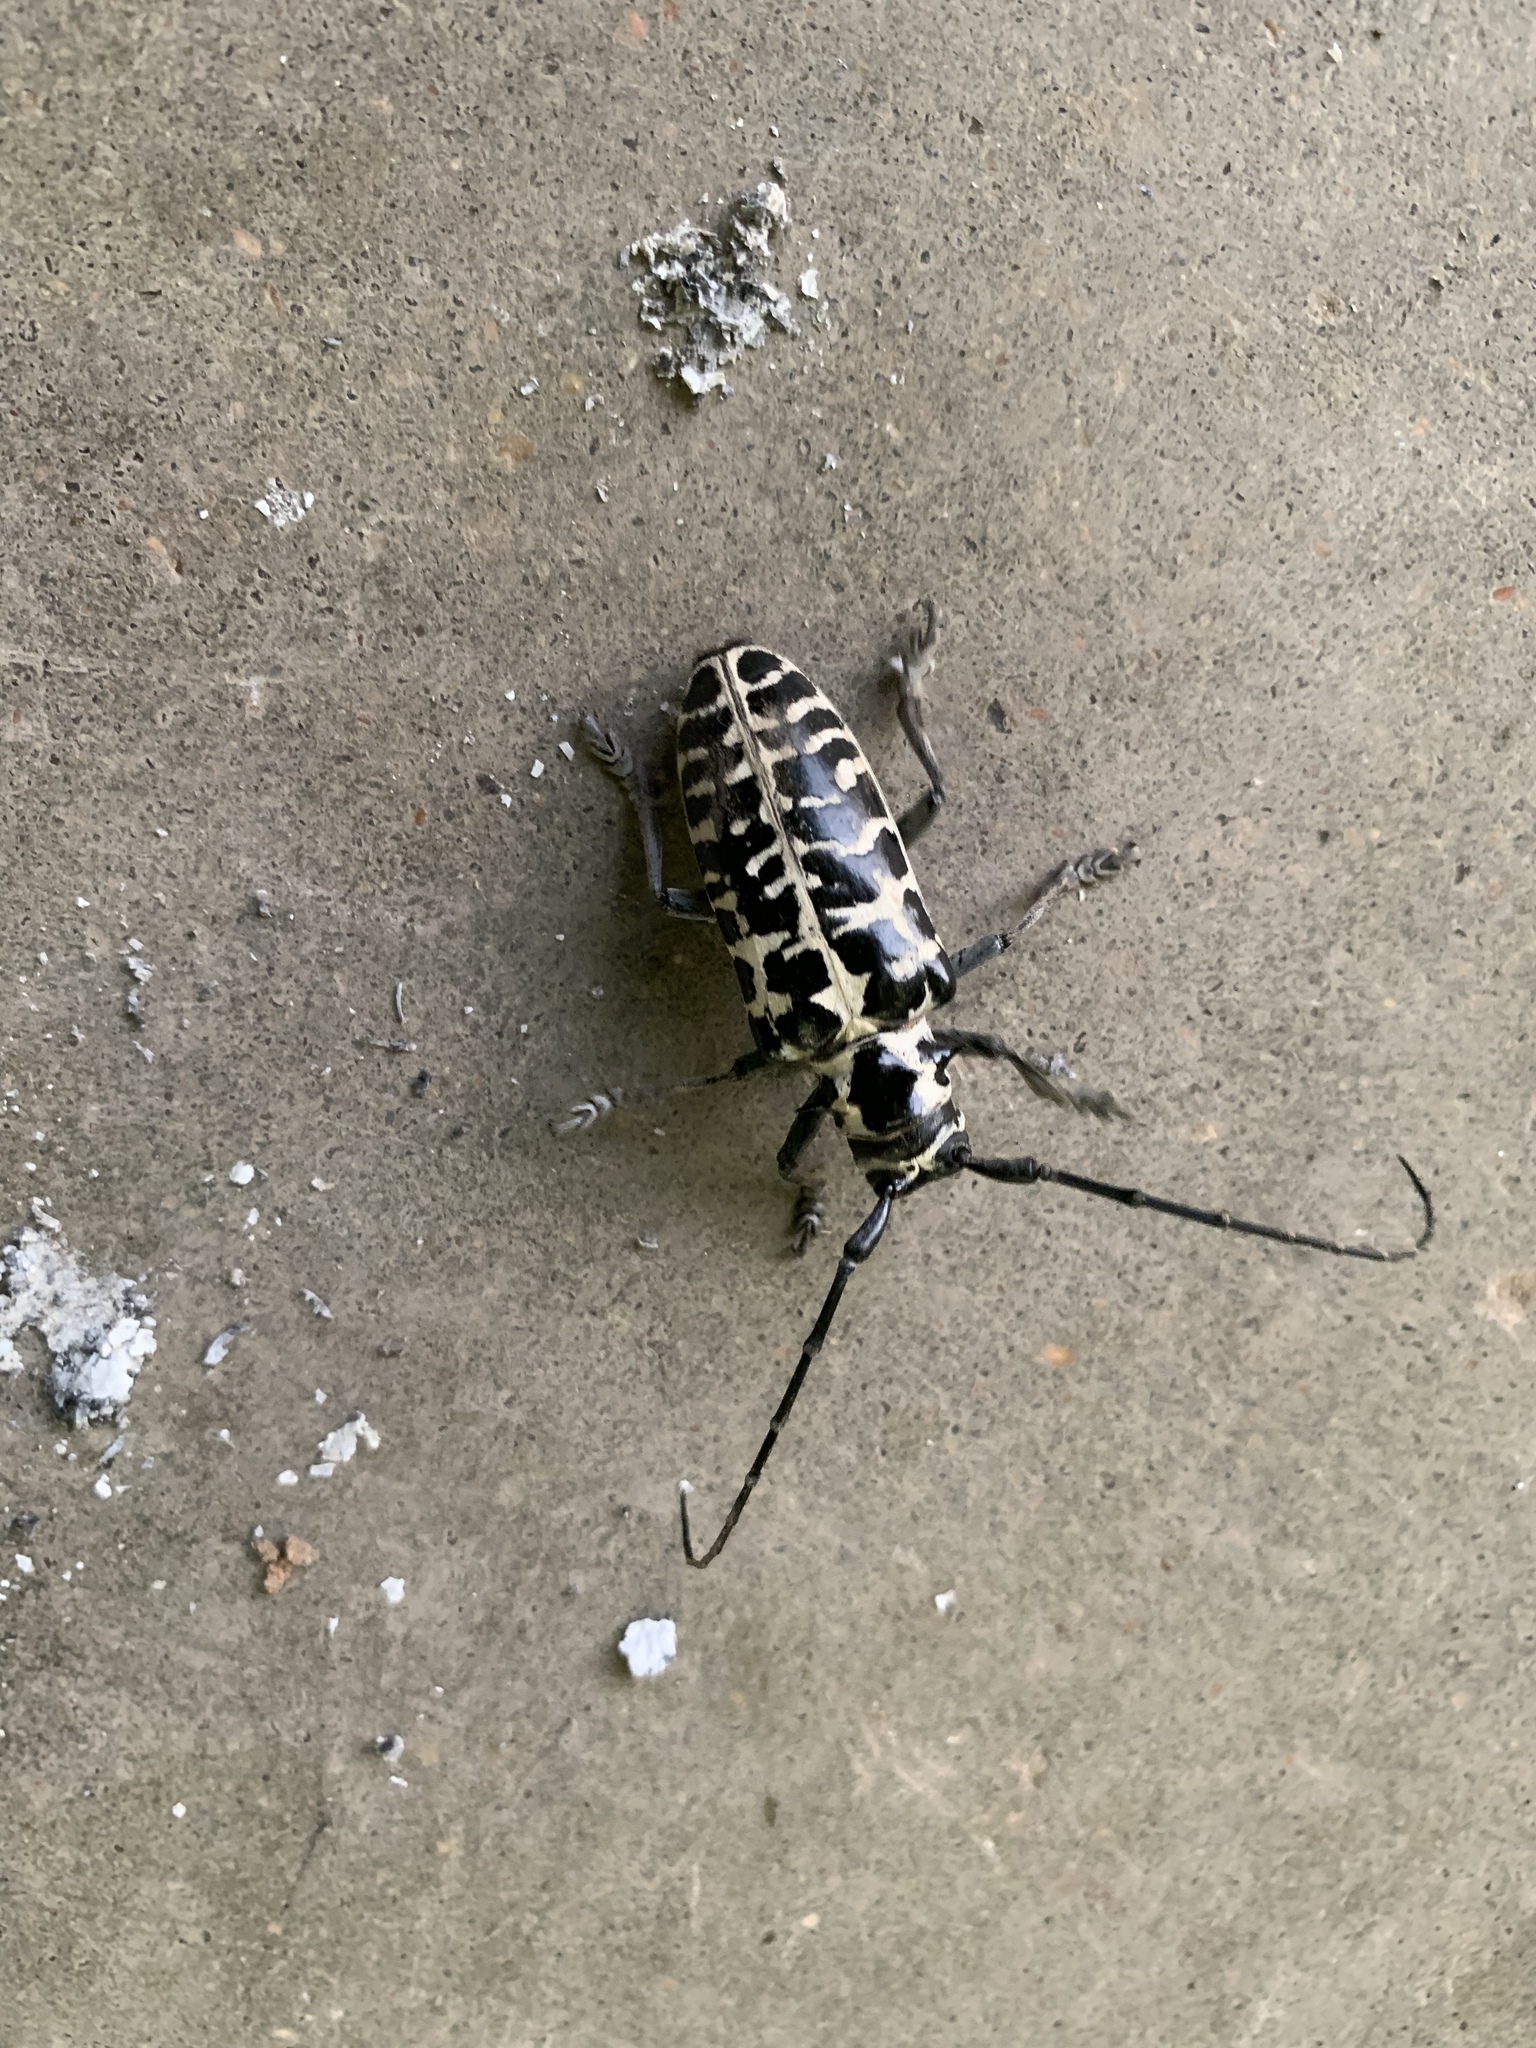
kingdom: Animalia
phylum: Arthropoda
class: Insecta
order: Coleoptera
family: Cerambycidae
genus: Plectrodera
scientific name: Plectrodera scalator
